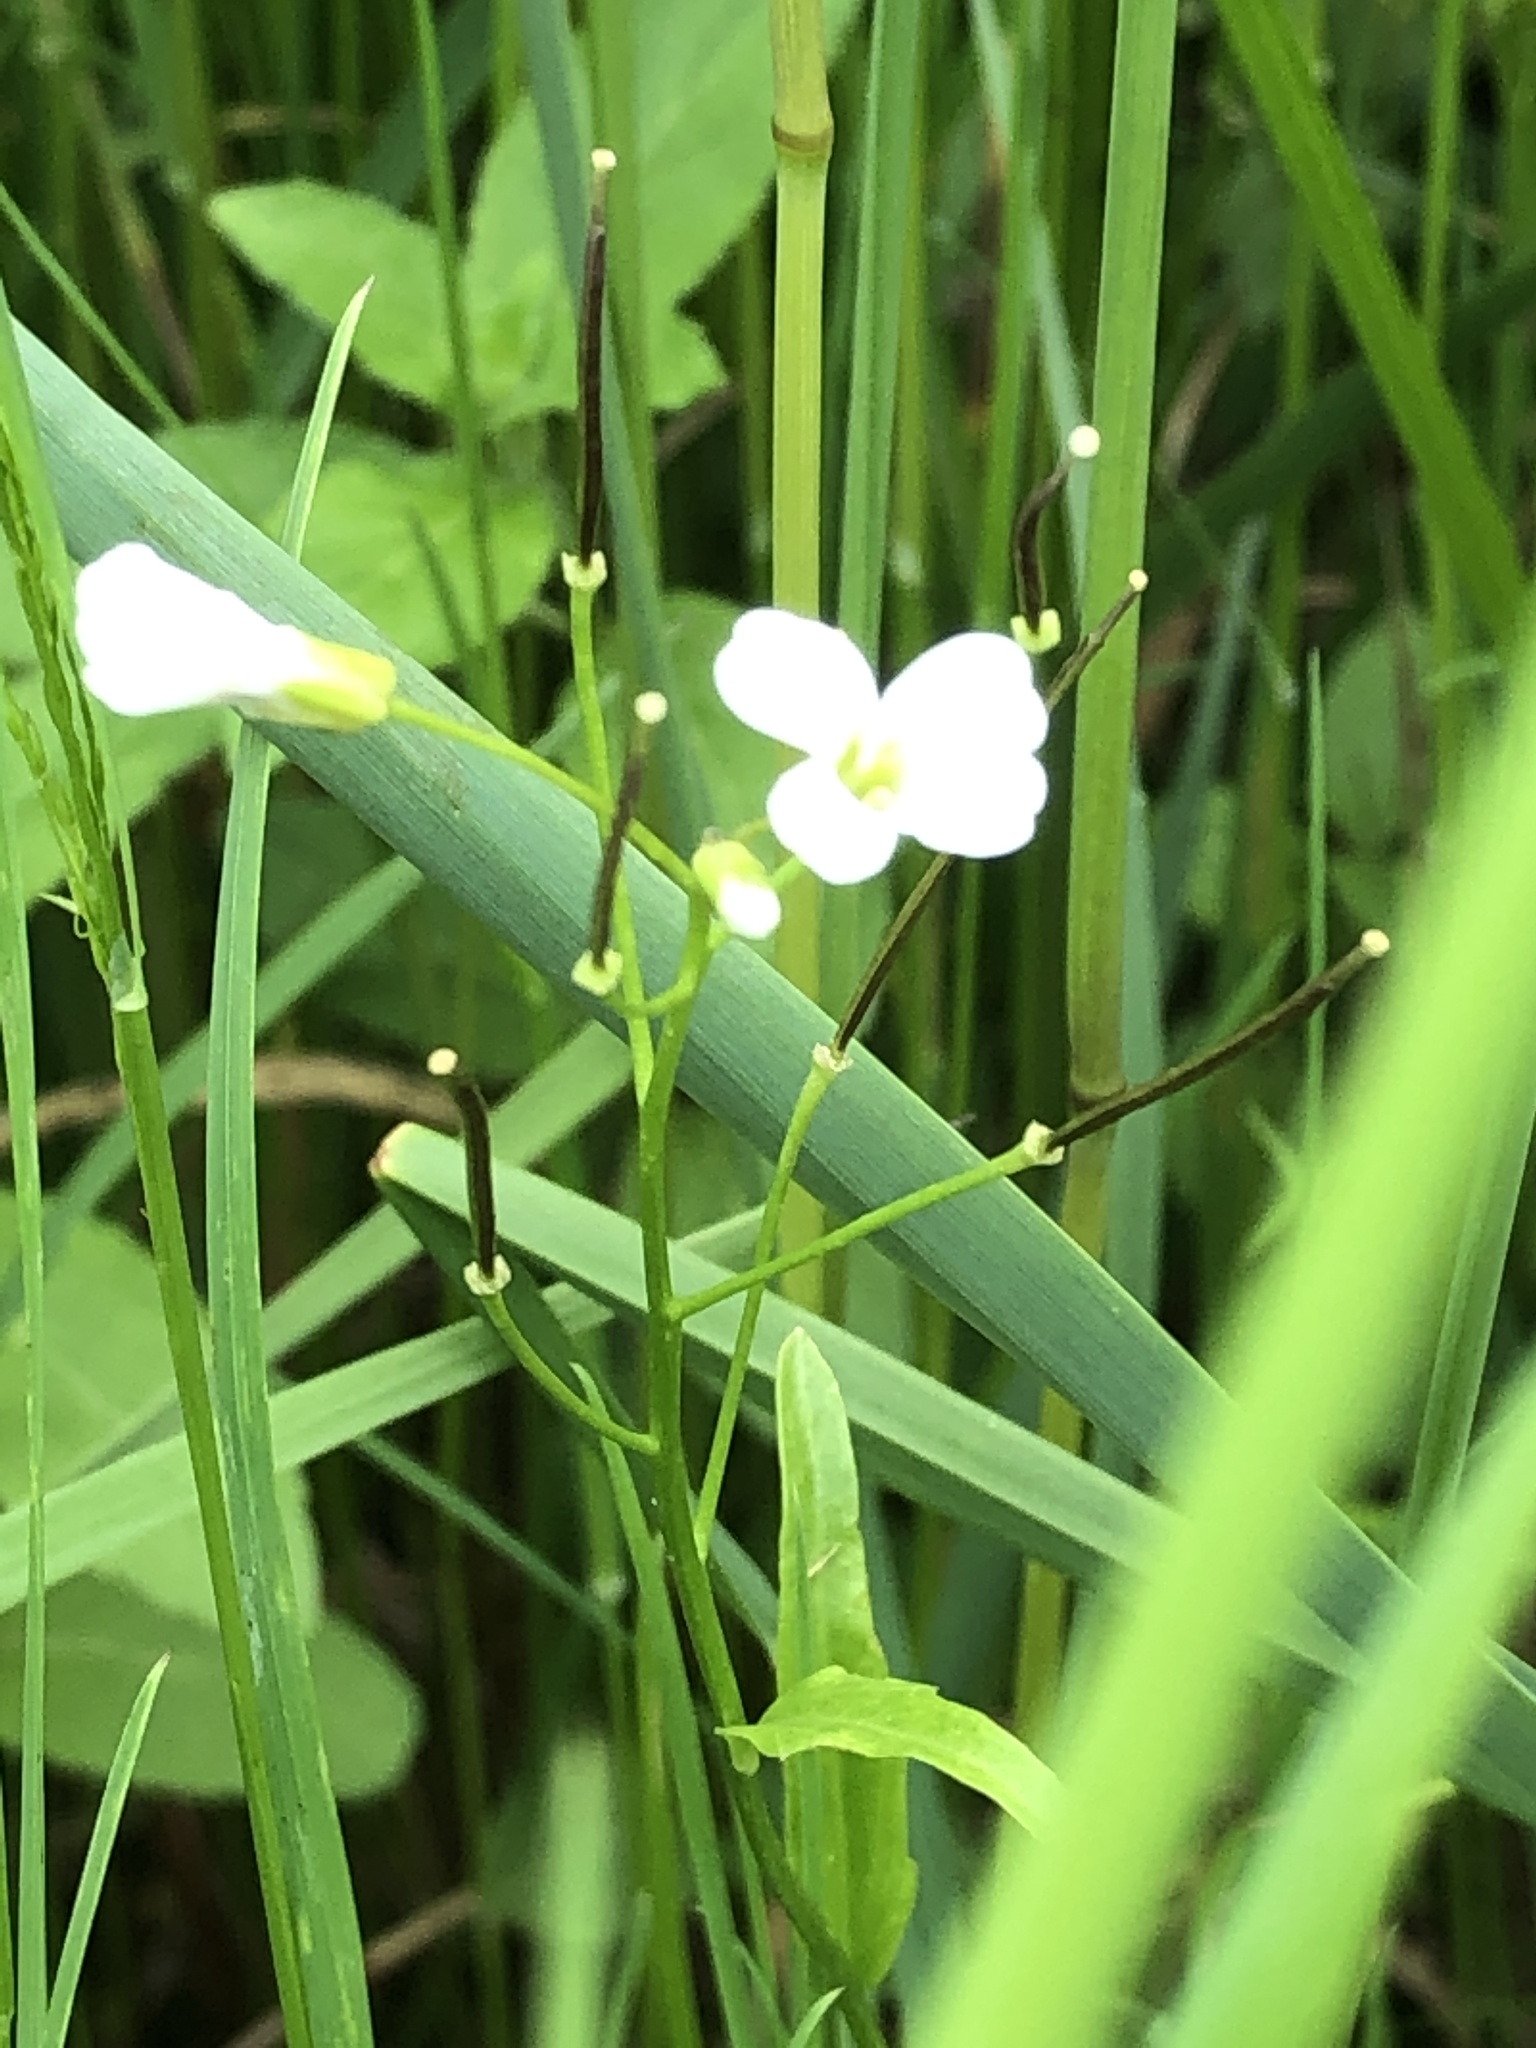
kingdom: Plantae
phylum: Tracheophyta
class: Magnoliopsida
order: Brassicales
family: Brassicaceae
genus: Cardamine
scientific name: Cardamine bulbosa
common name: Spring cress
